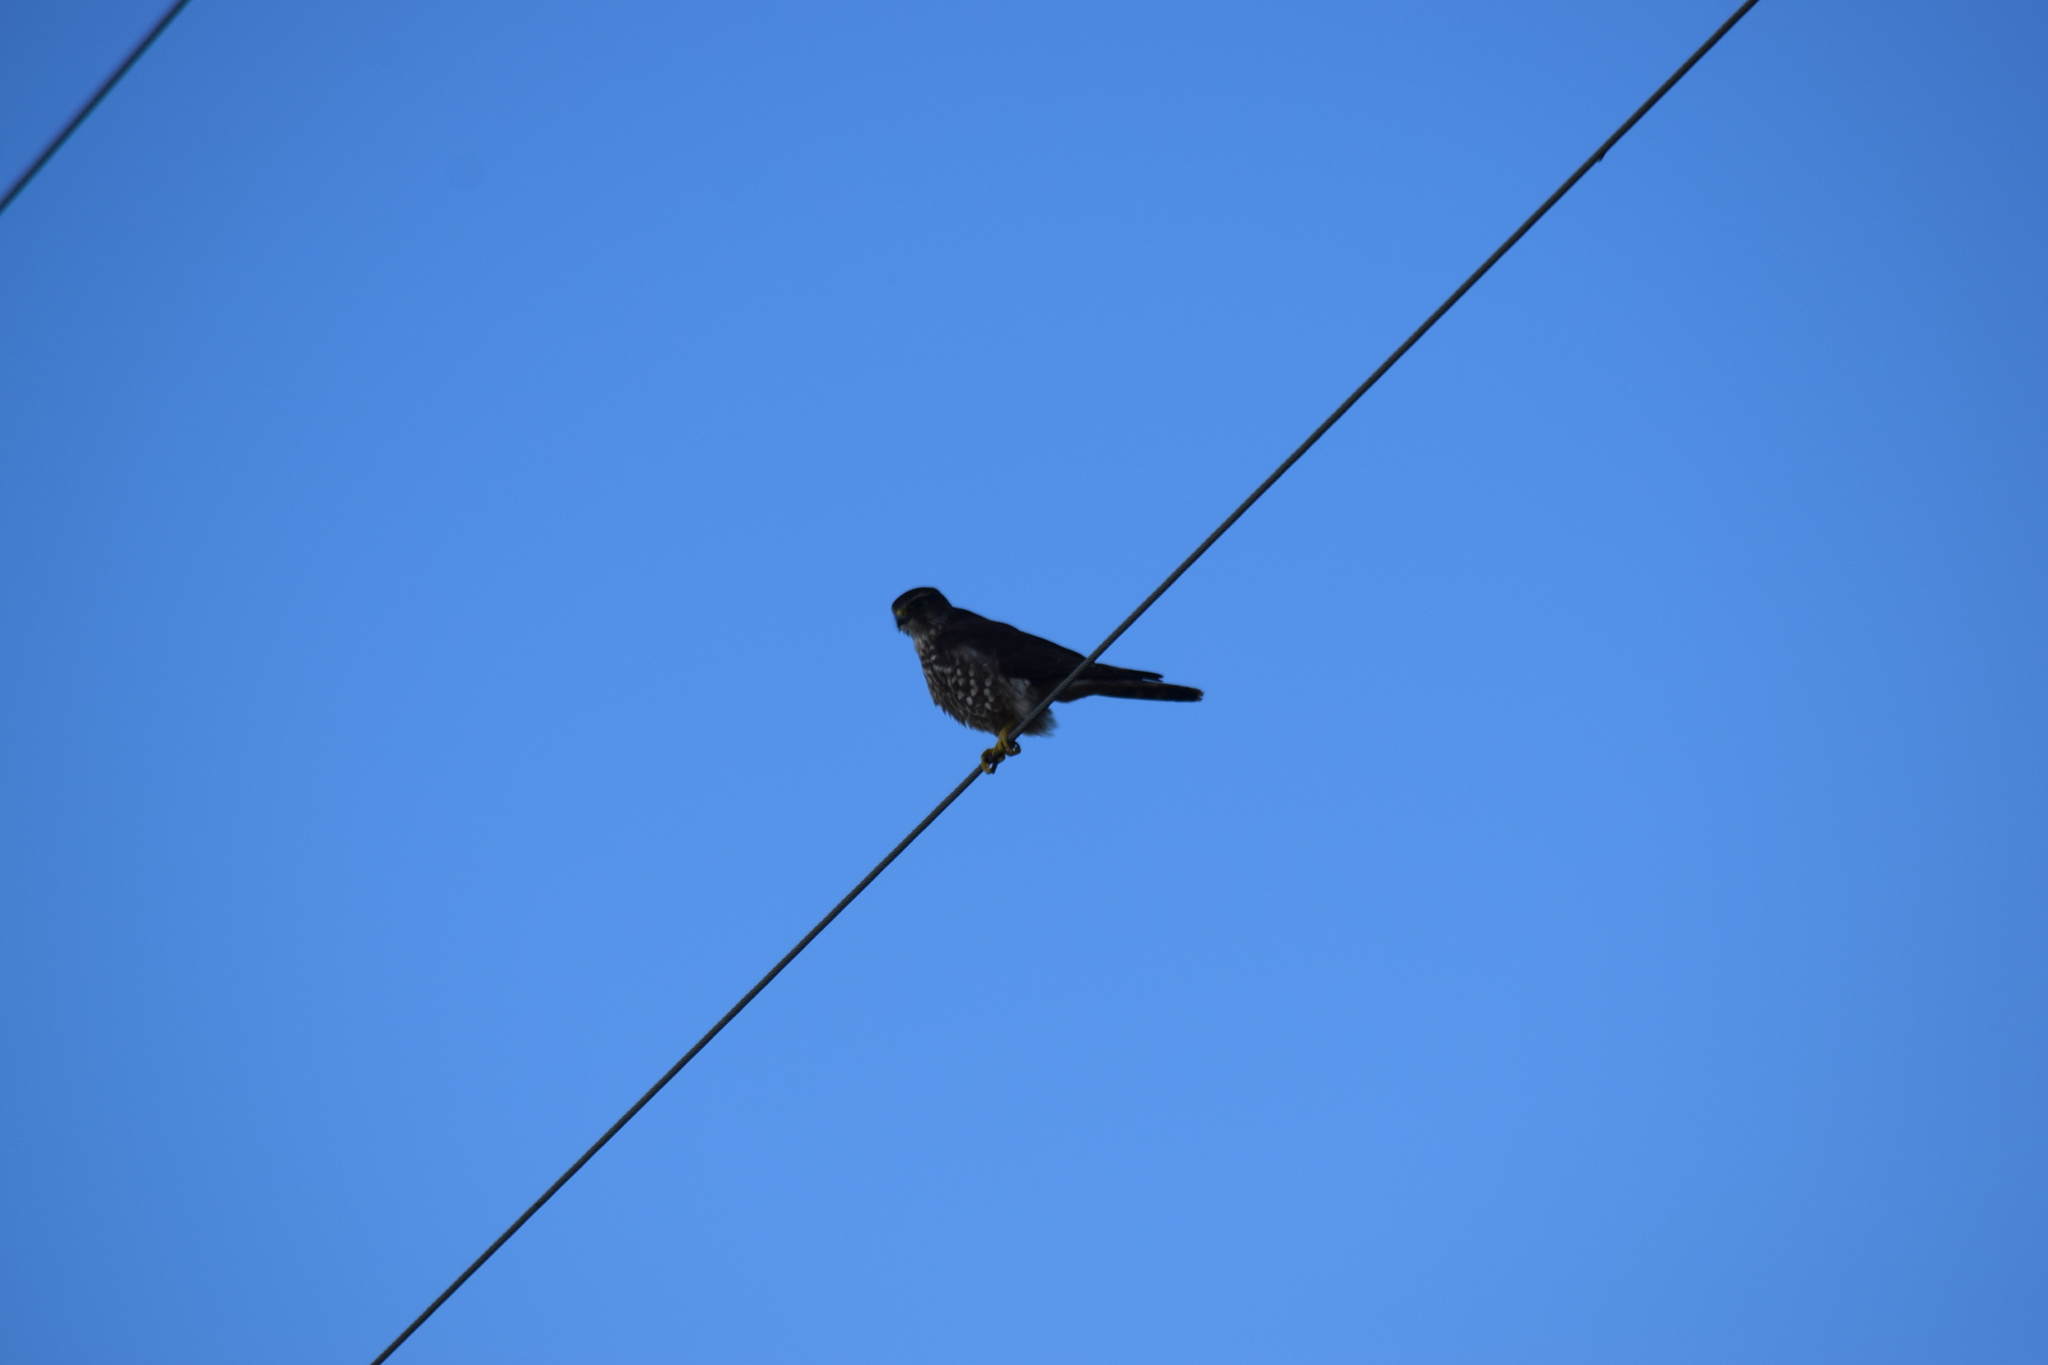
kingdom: Animalia
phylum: Chordata
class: Aves
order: Falconiformes
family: Falconidae
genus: Falco
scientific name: Falco columbarius
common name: Merlin
